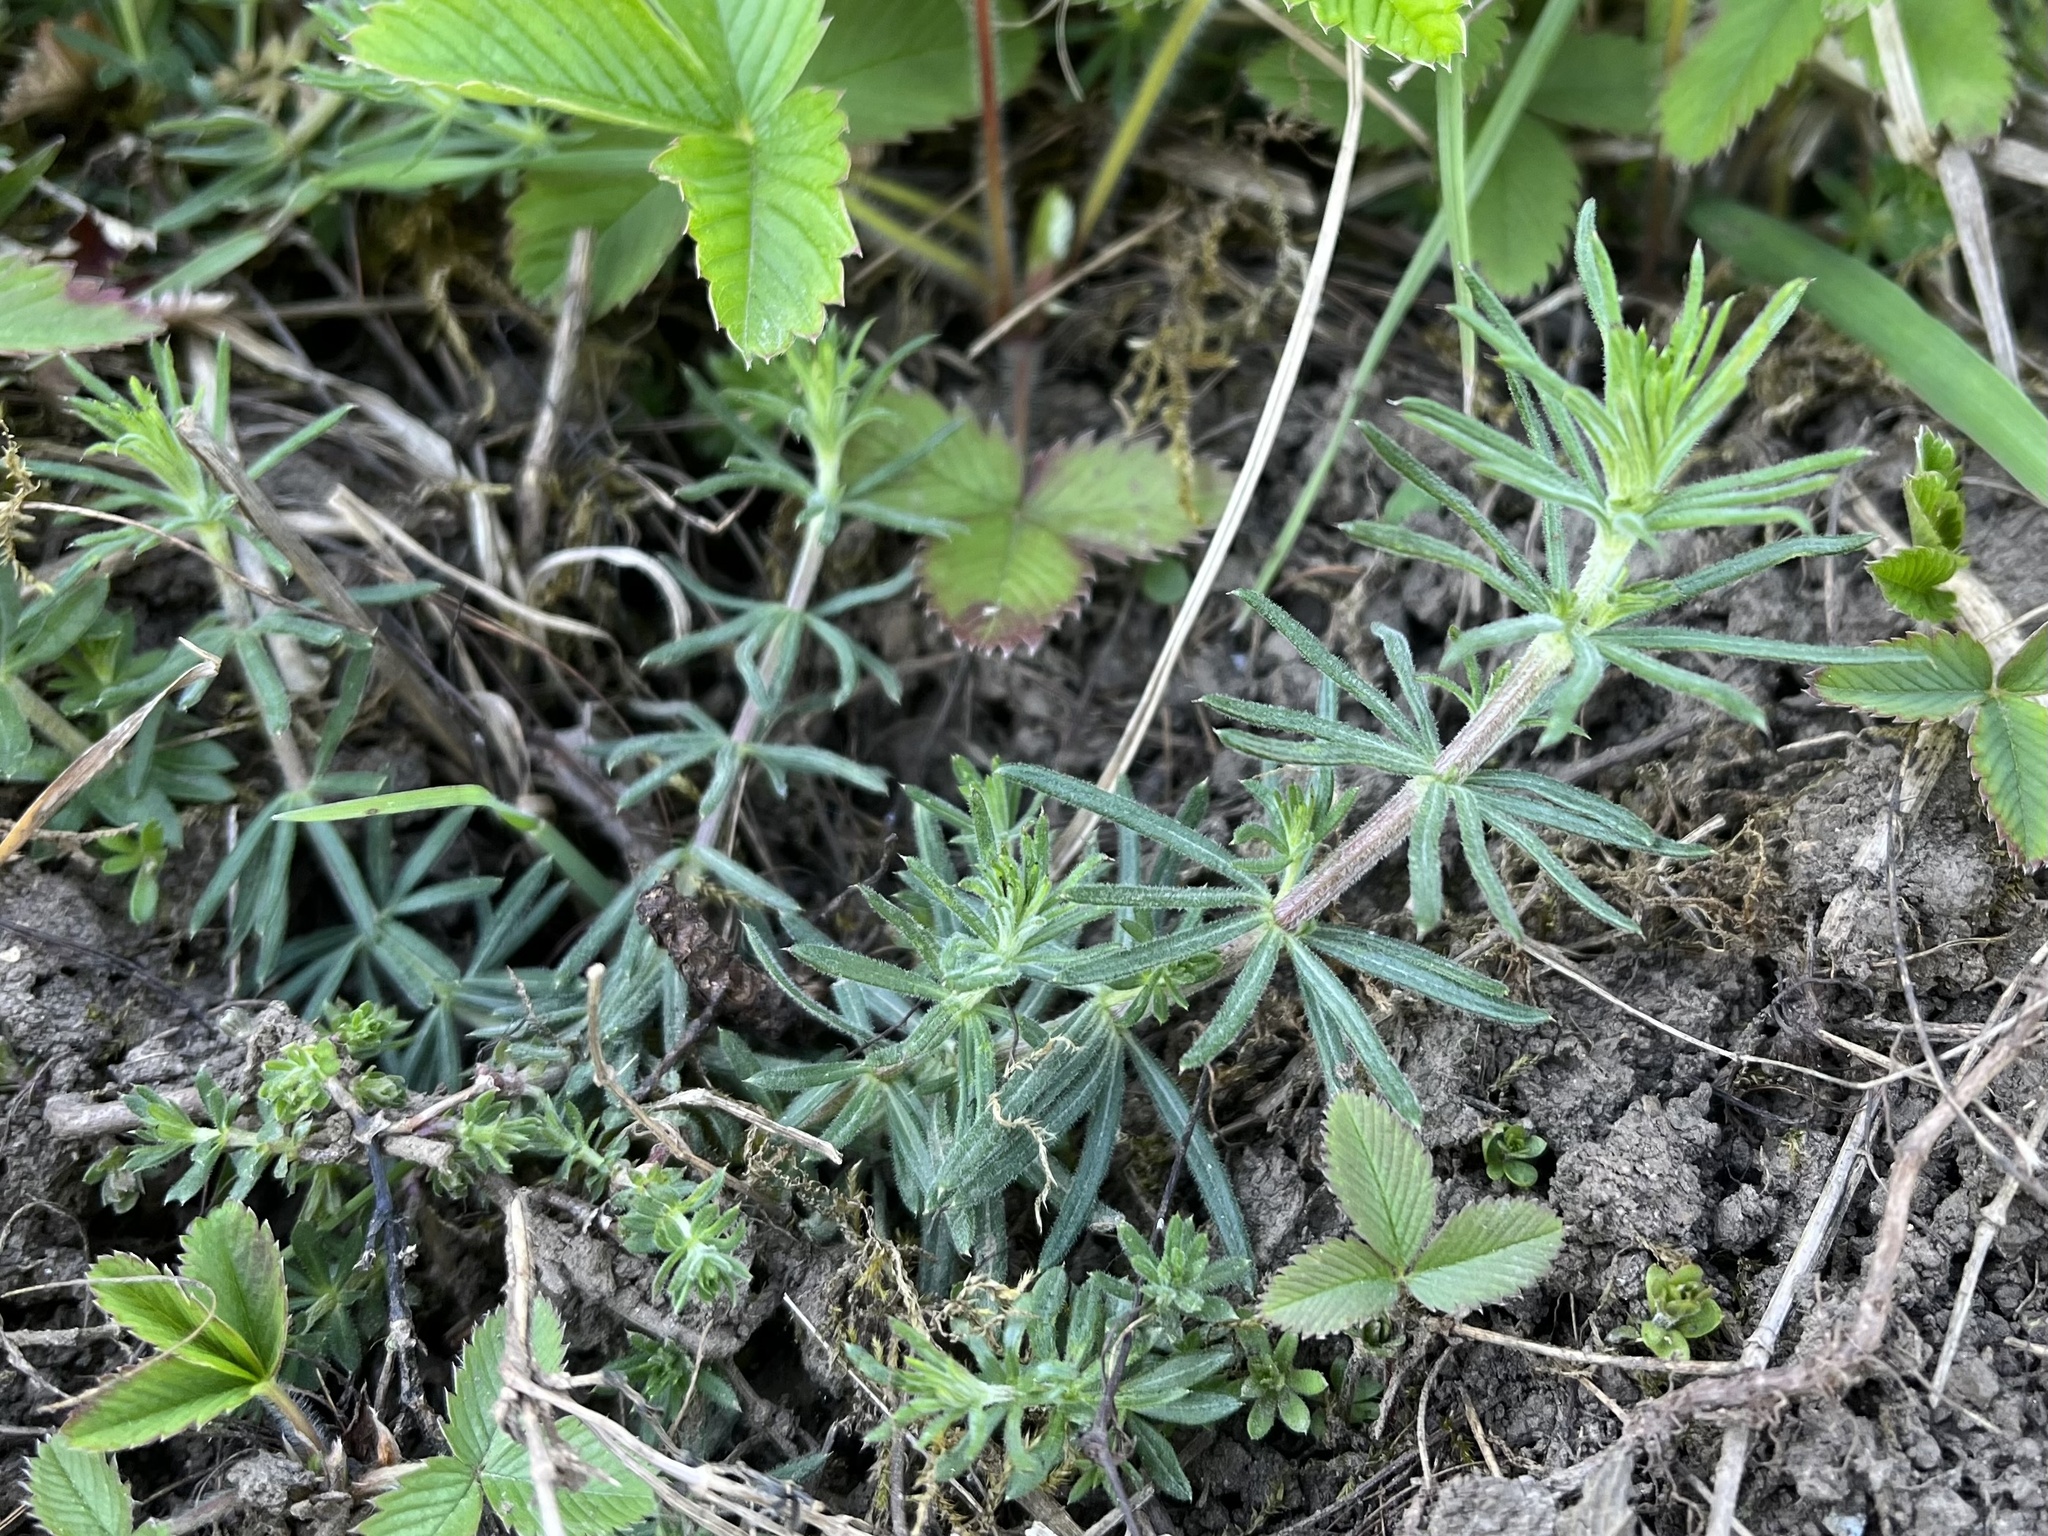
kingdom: Plantae
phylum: Tracheophyta
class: Magnoliopsida
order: Gentianales
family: Rubiaceae
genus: Galium
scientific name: Galium verum
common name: Lady's bedstraw
